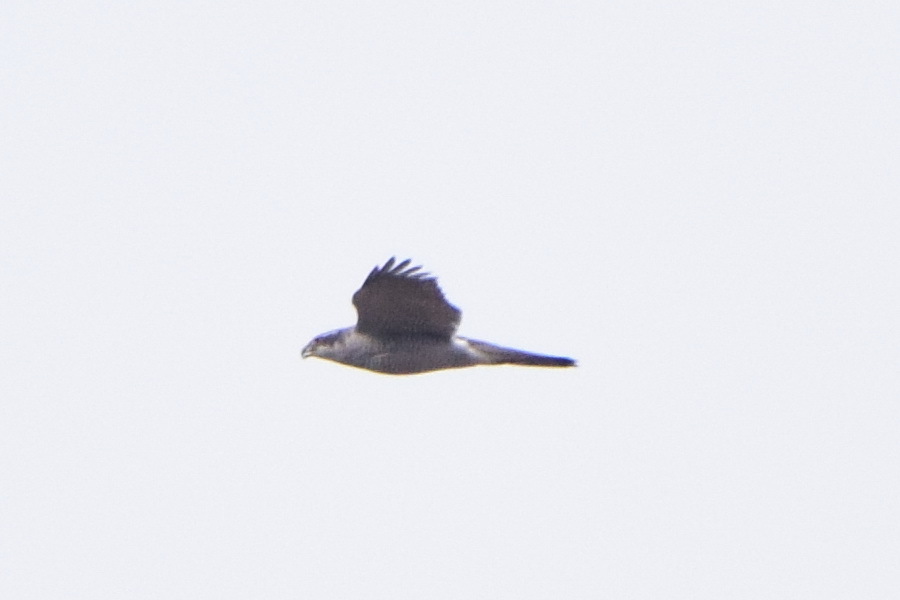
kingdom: Animalia
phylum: Chordata
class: Aves
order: Accipitriformes
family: Accipitridae
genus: Accipiter
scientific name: Accipiter gentilis
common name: Northern goshawk
